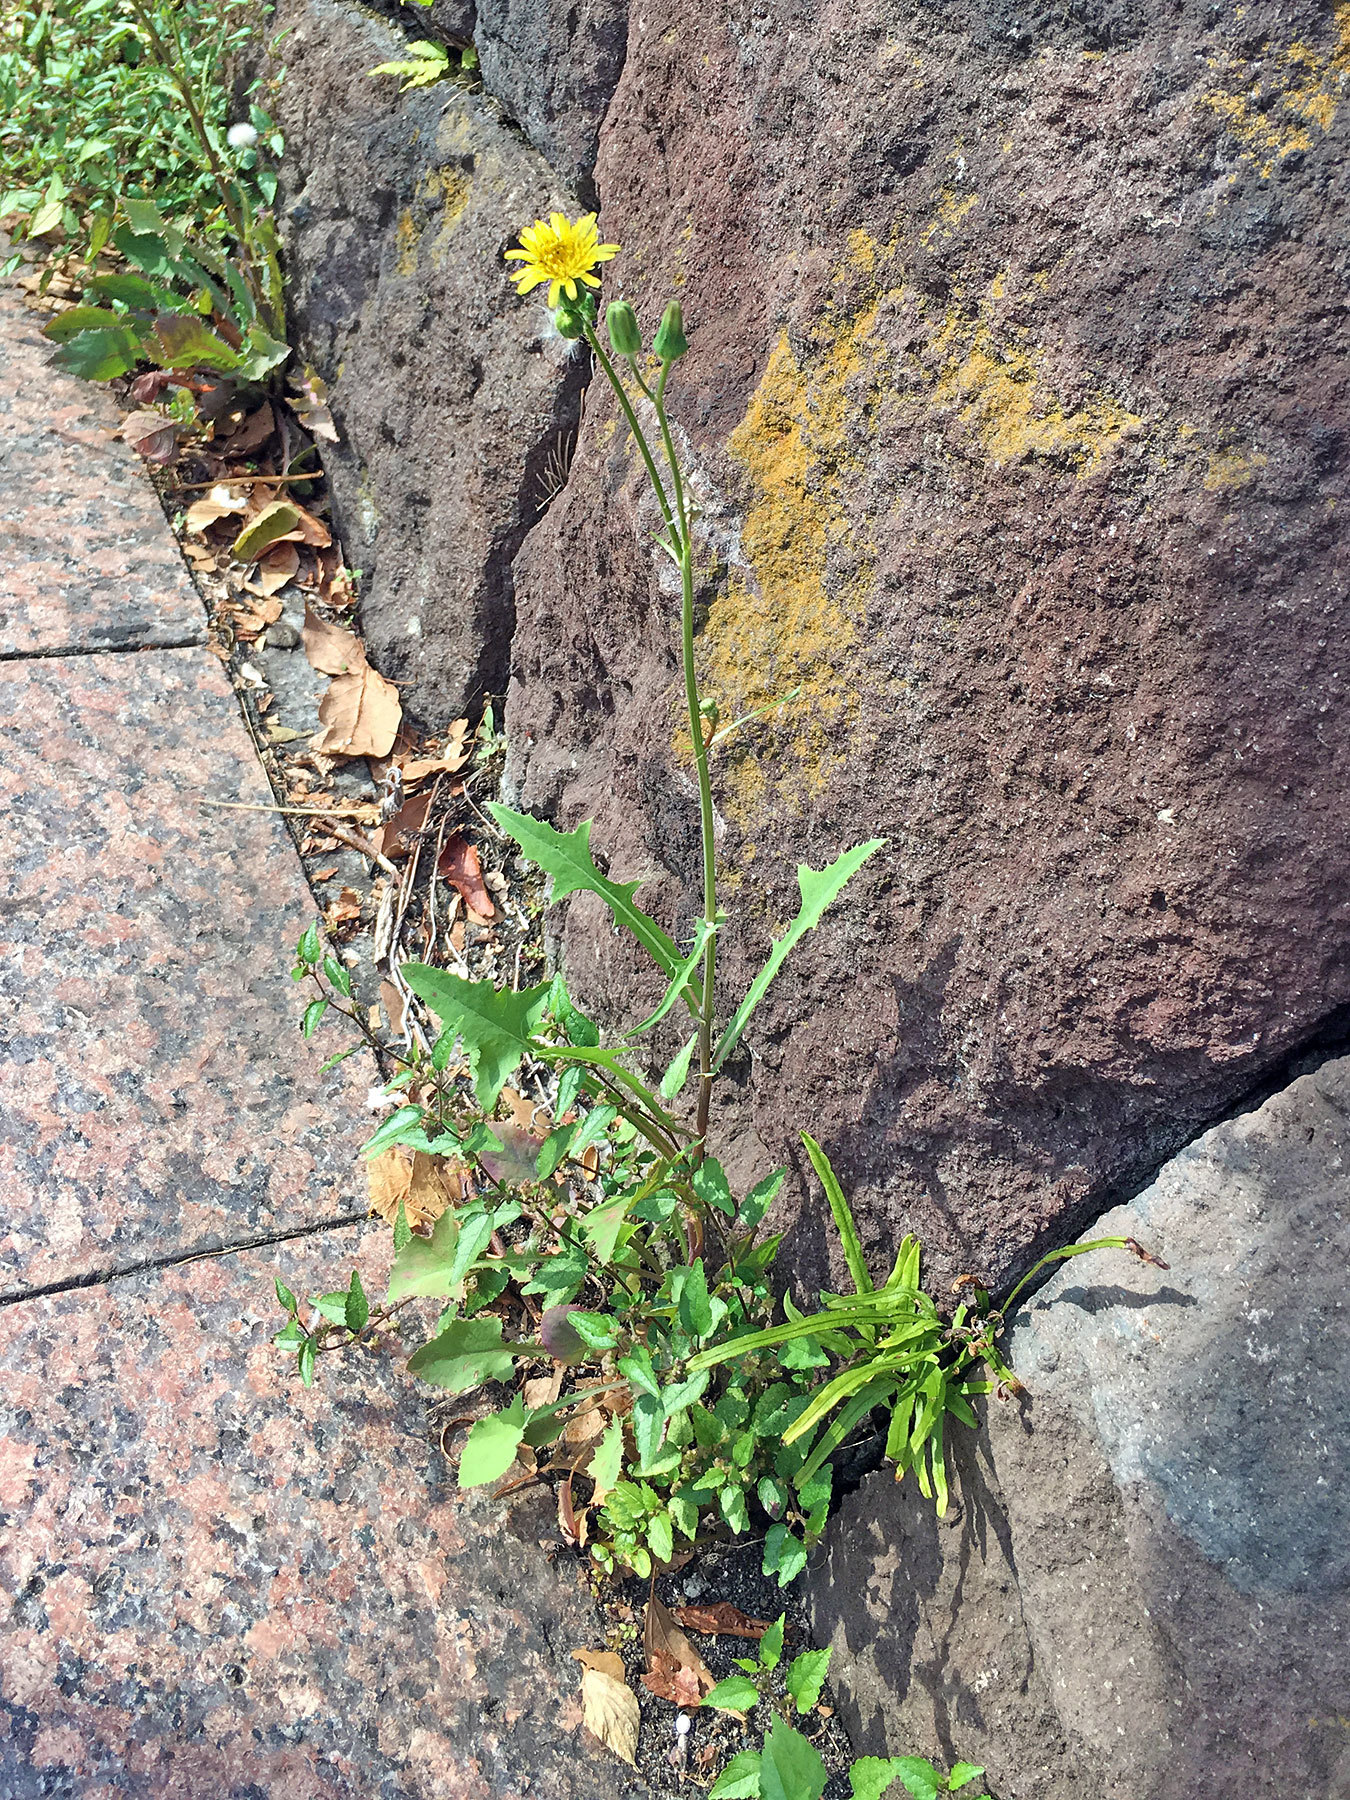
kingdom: Plantae
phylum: Tracheophyta
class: Magnoliopsida
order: Asterales
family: Asteraceae
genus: Sonchus
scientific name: Sonchus oleraceus
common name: Common sowthistle
